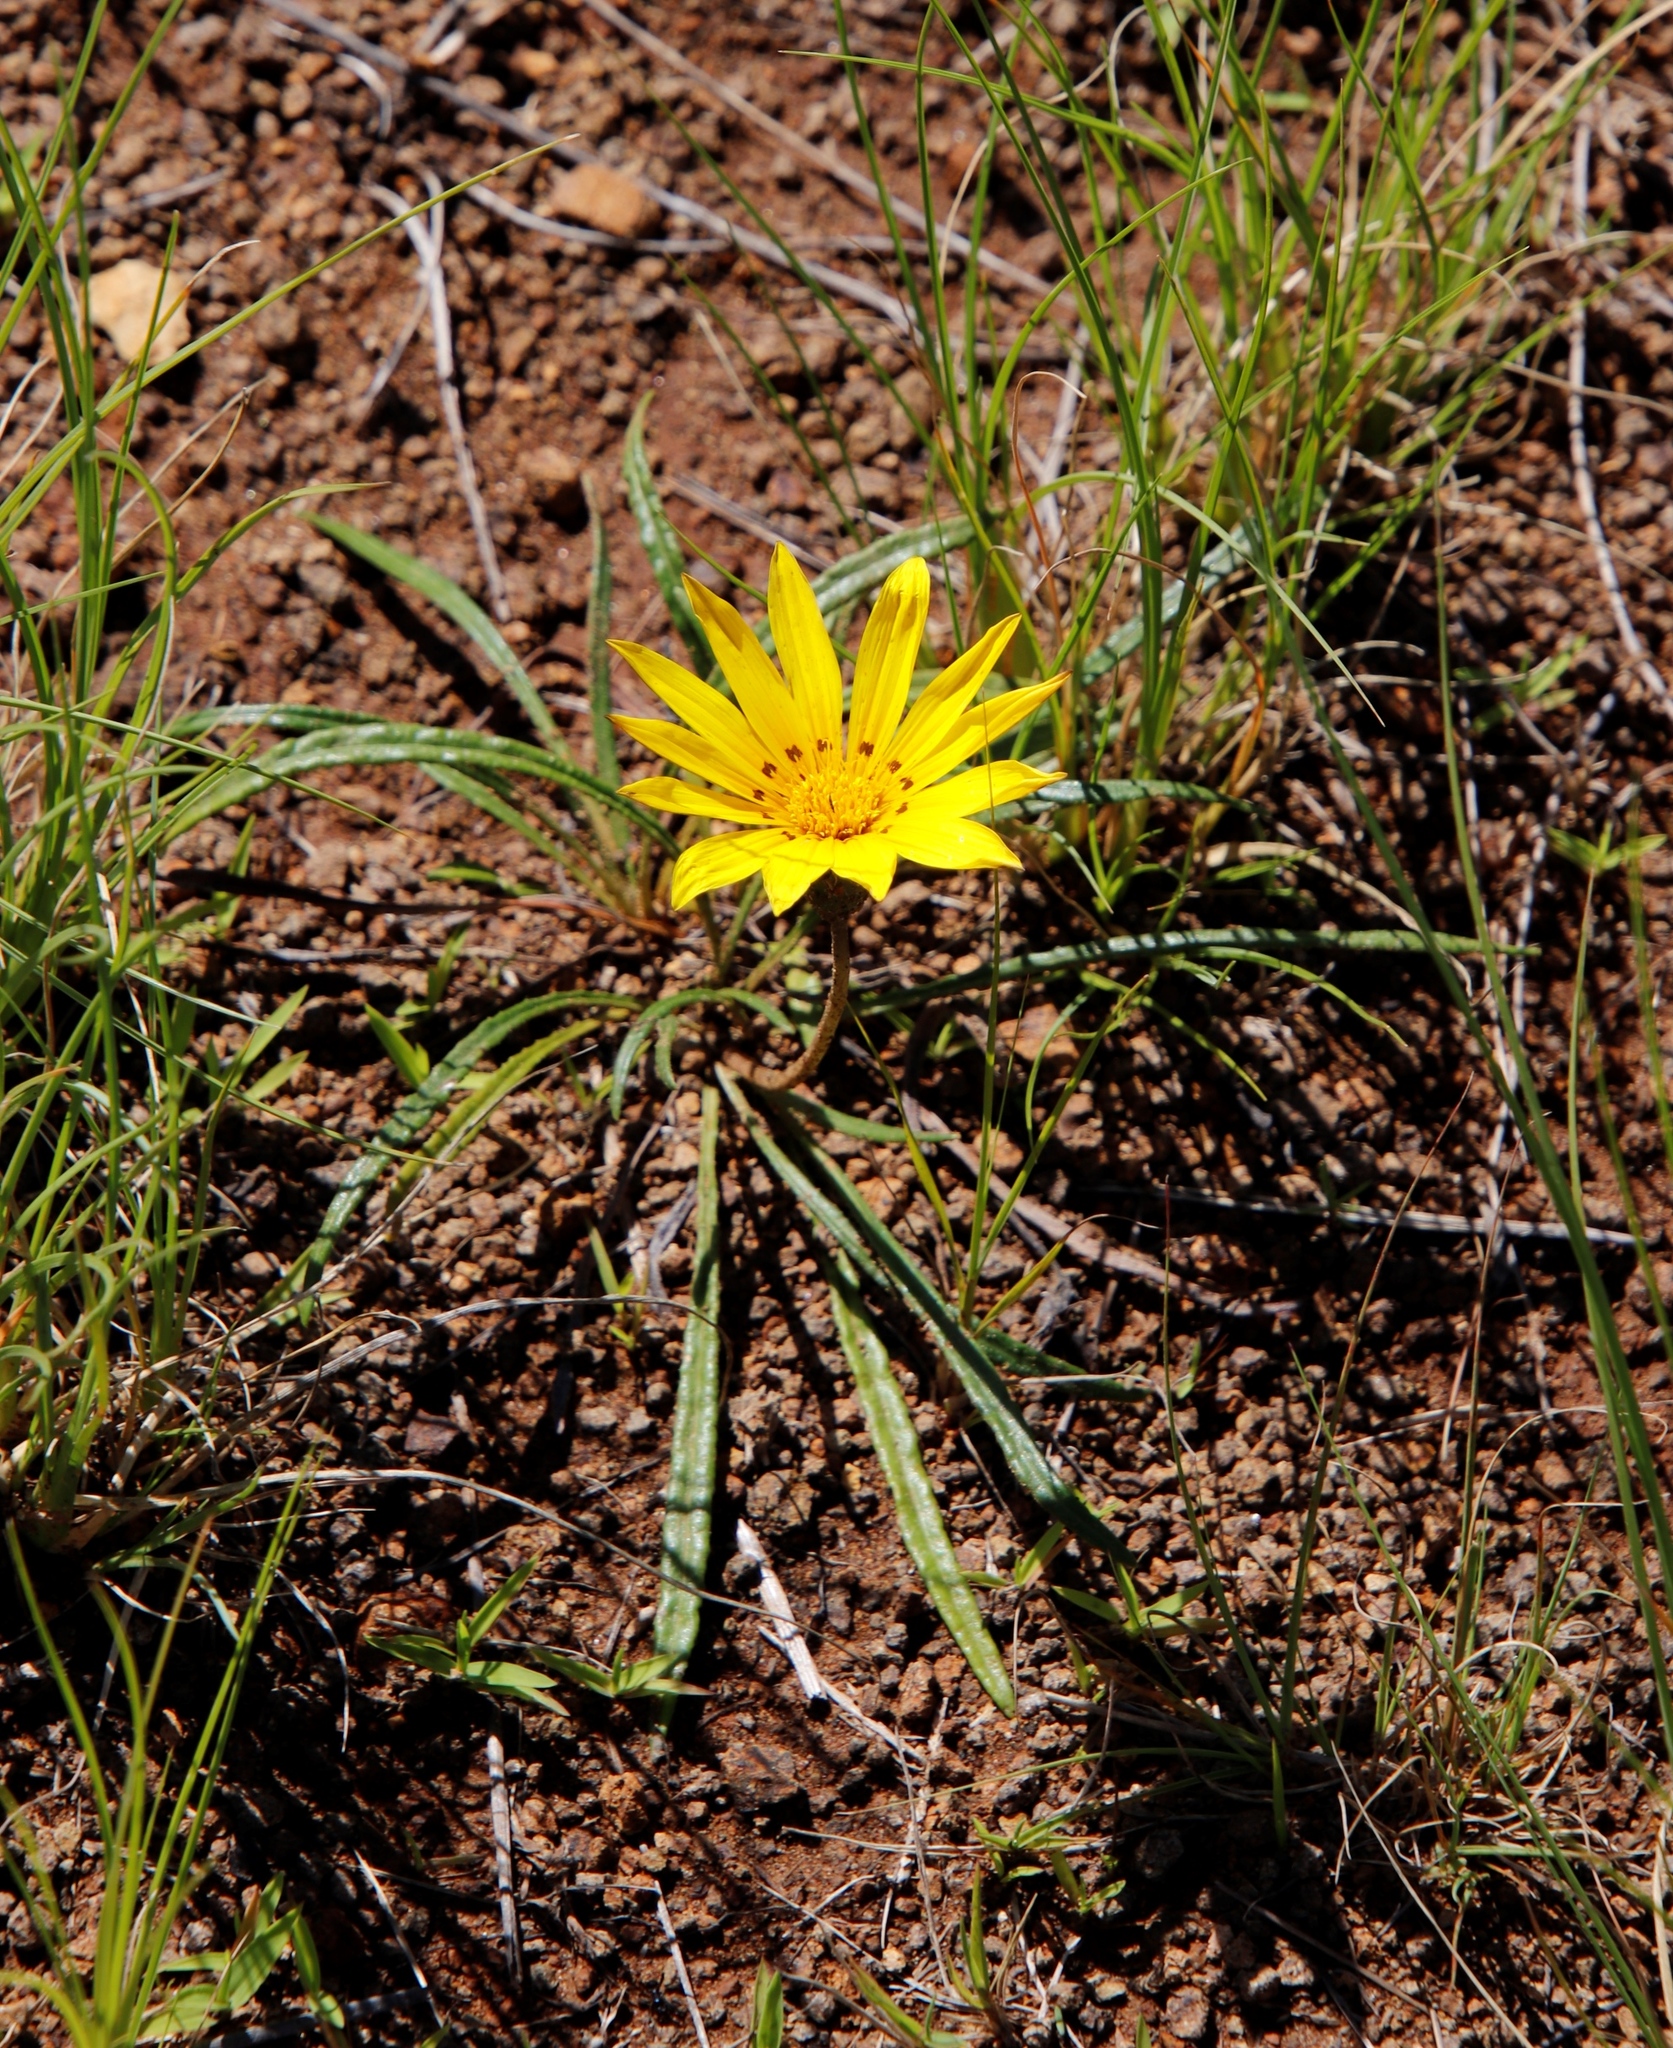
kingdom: Plantae
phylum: Tracheophyta
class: Magnoliopsida
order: Asterales
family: Asteraceae
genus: Gazania
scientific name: Gazania linearis
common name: Treasureflower
